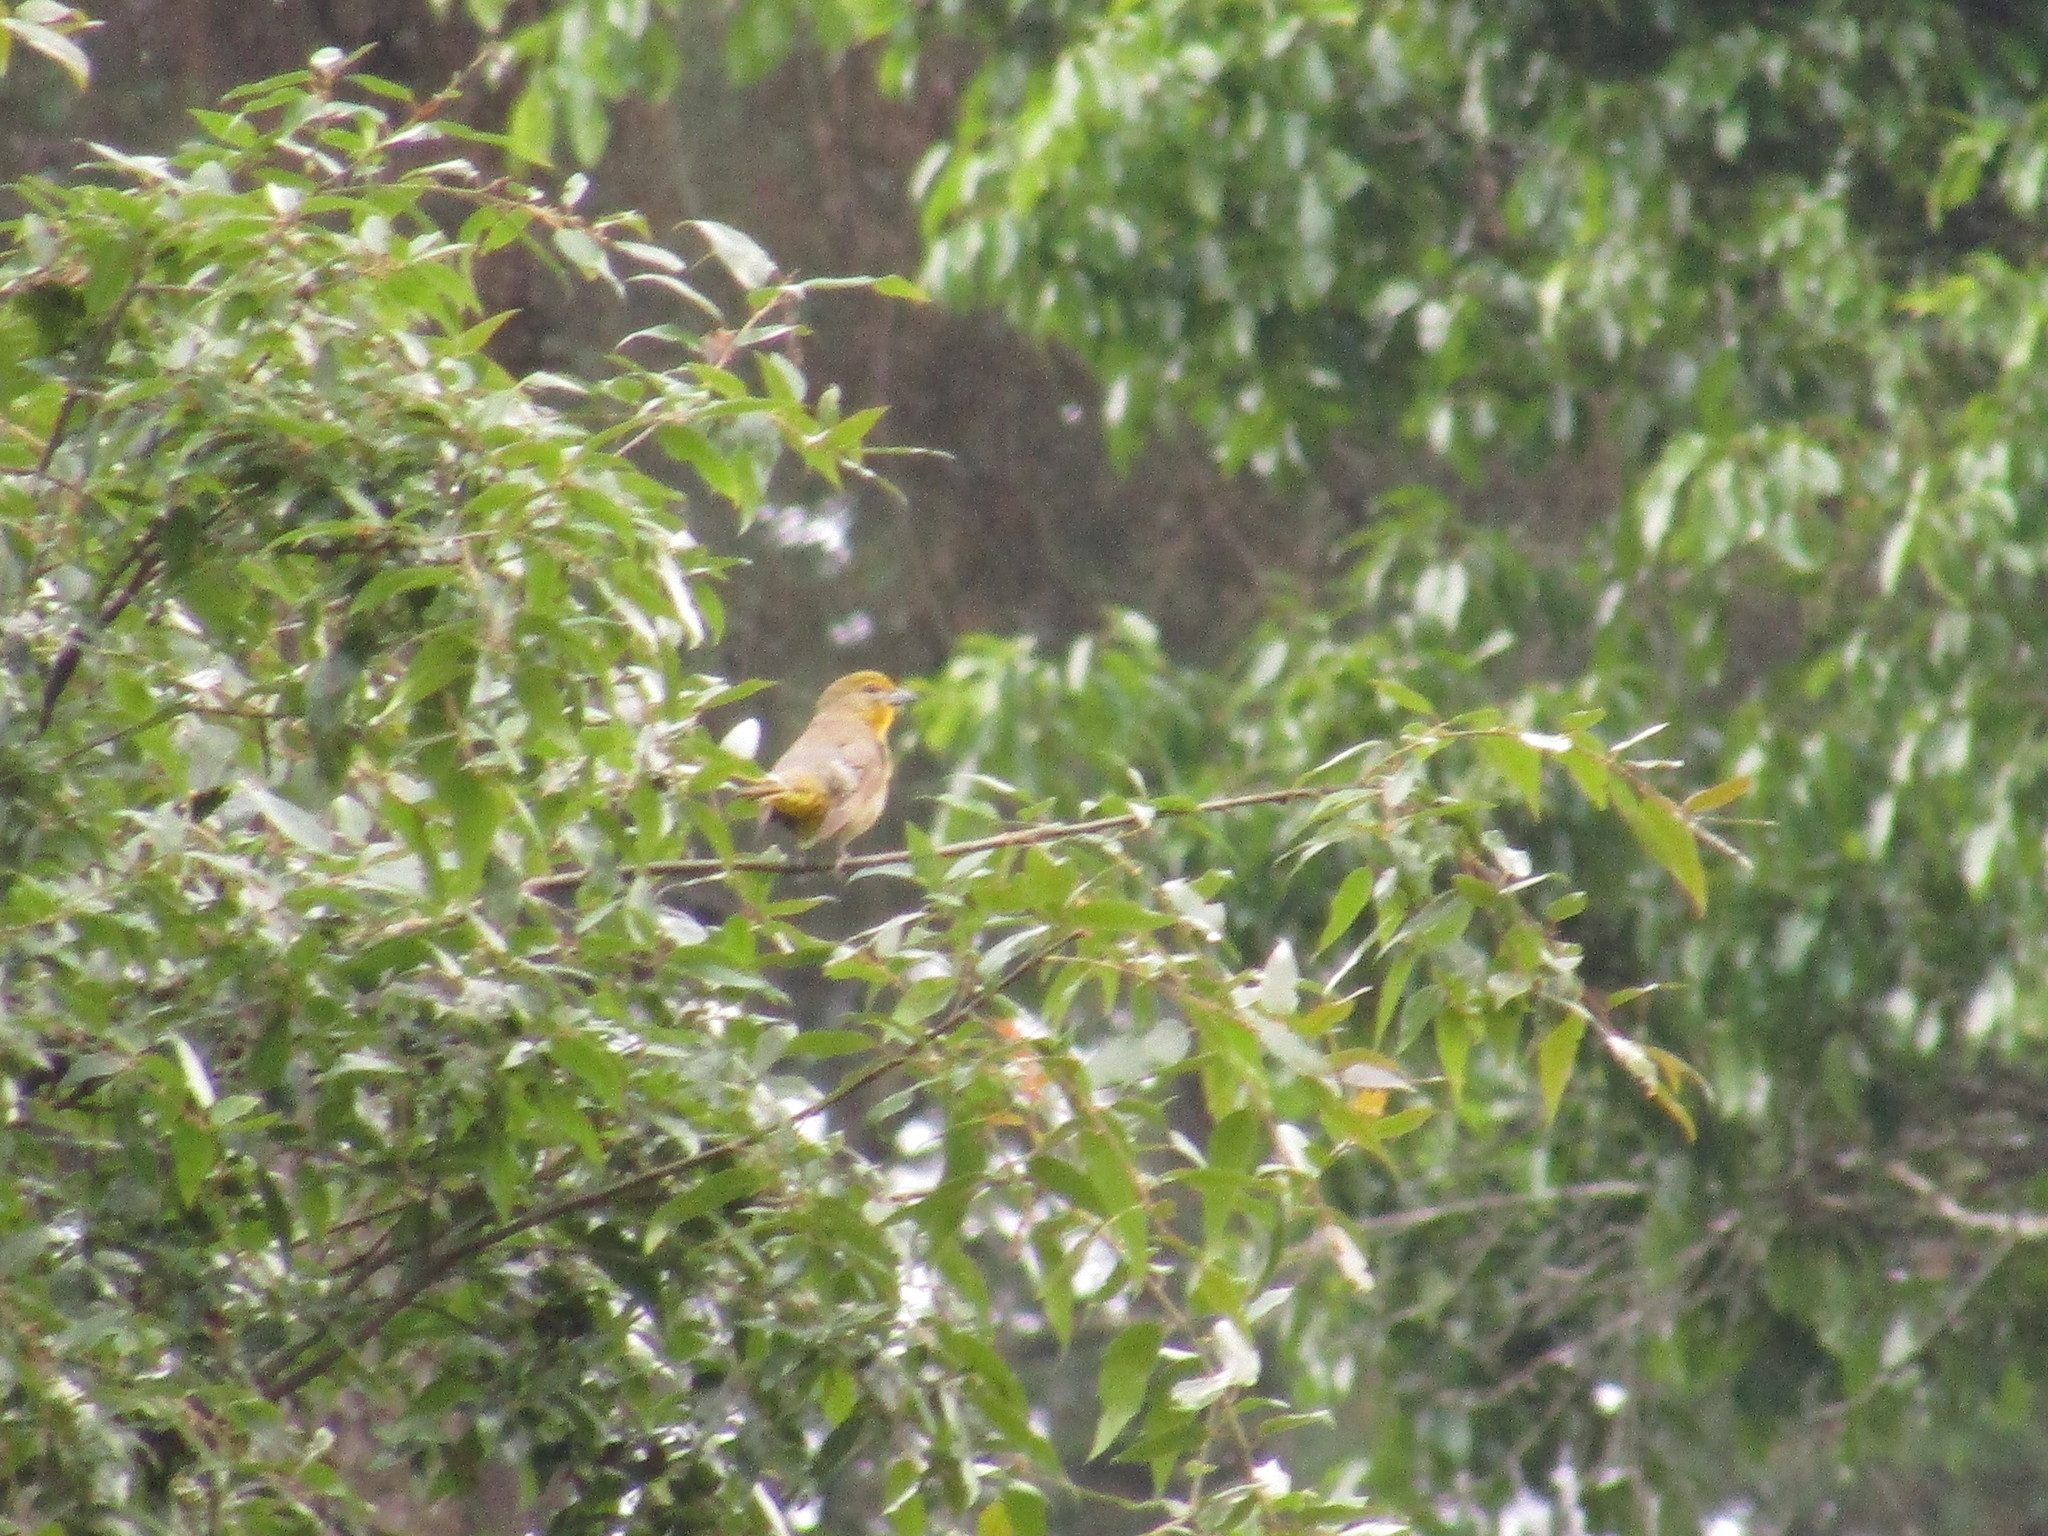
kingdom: Animalia
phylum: Chordata
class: Aves
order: Passeriformes
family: Cardinalidae
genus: Piranga
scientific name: Piranga flava
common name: Red tanager
